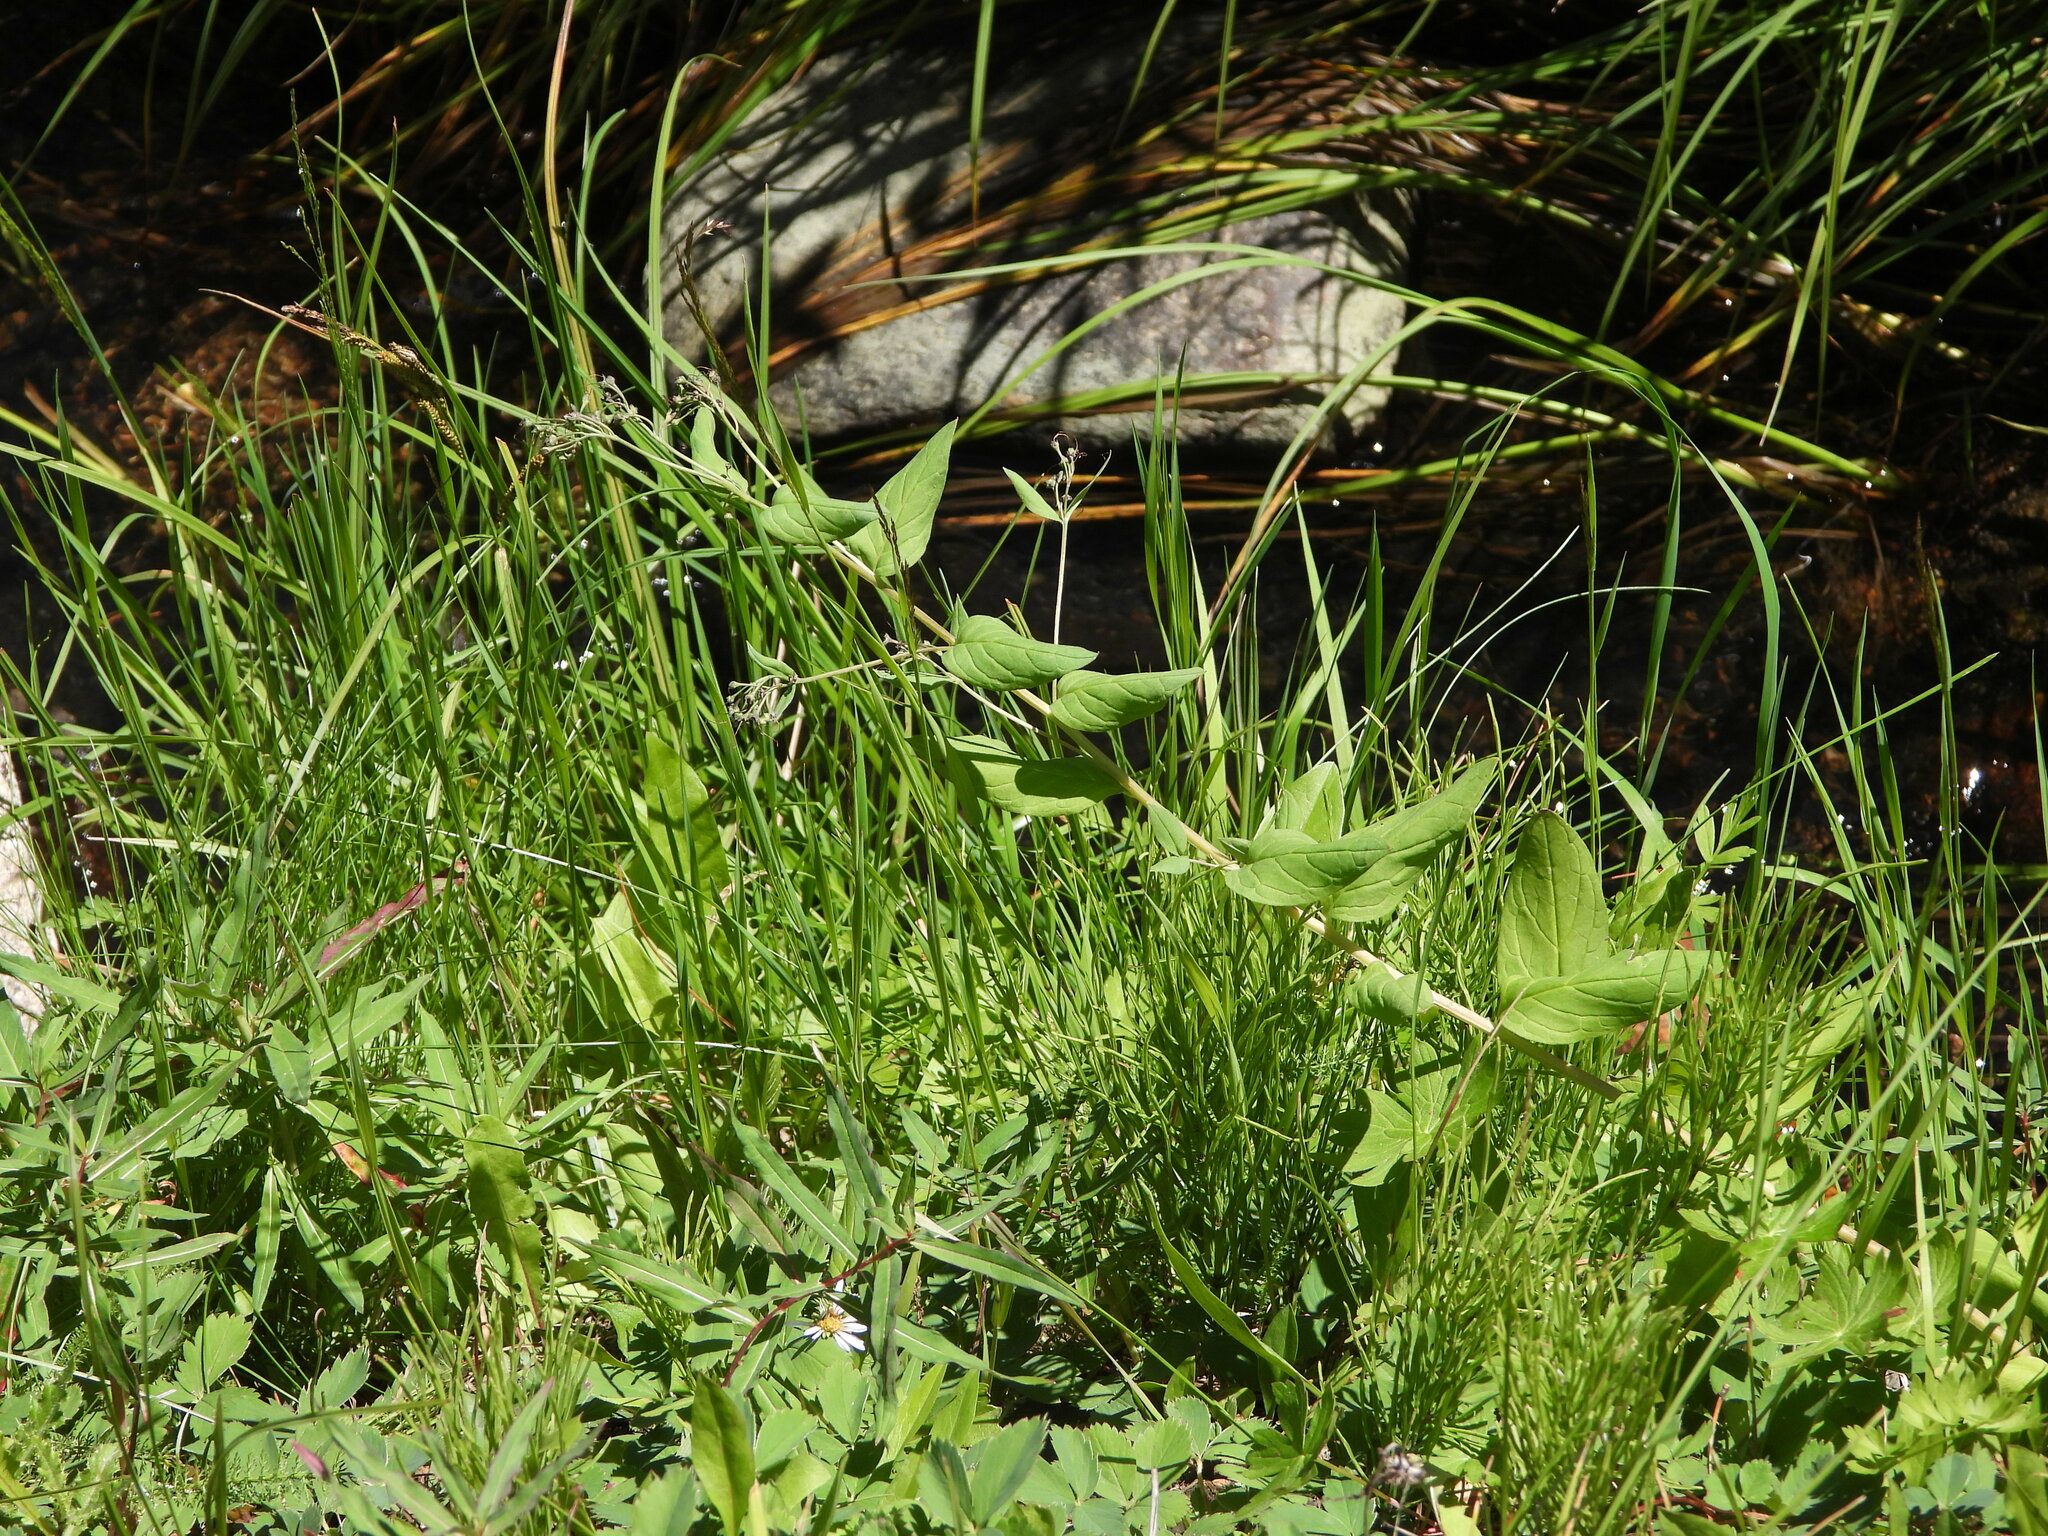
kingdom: Plantae
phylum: Tracheophyta
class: Magnoliopsida
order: Boraginales
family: Boraginaceae
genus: Mertensia
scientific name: Mertensia ciliata
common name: Tall chiming-bells
